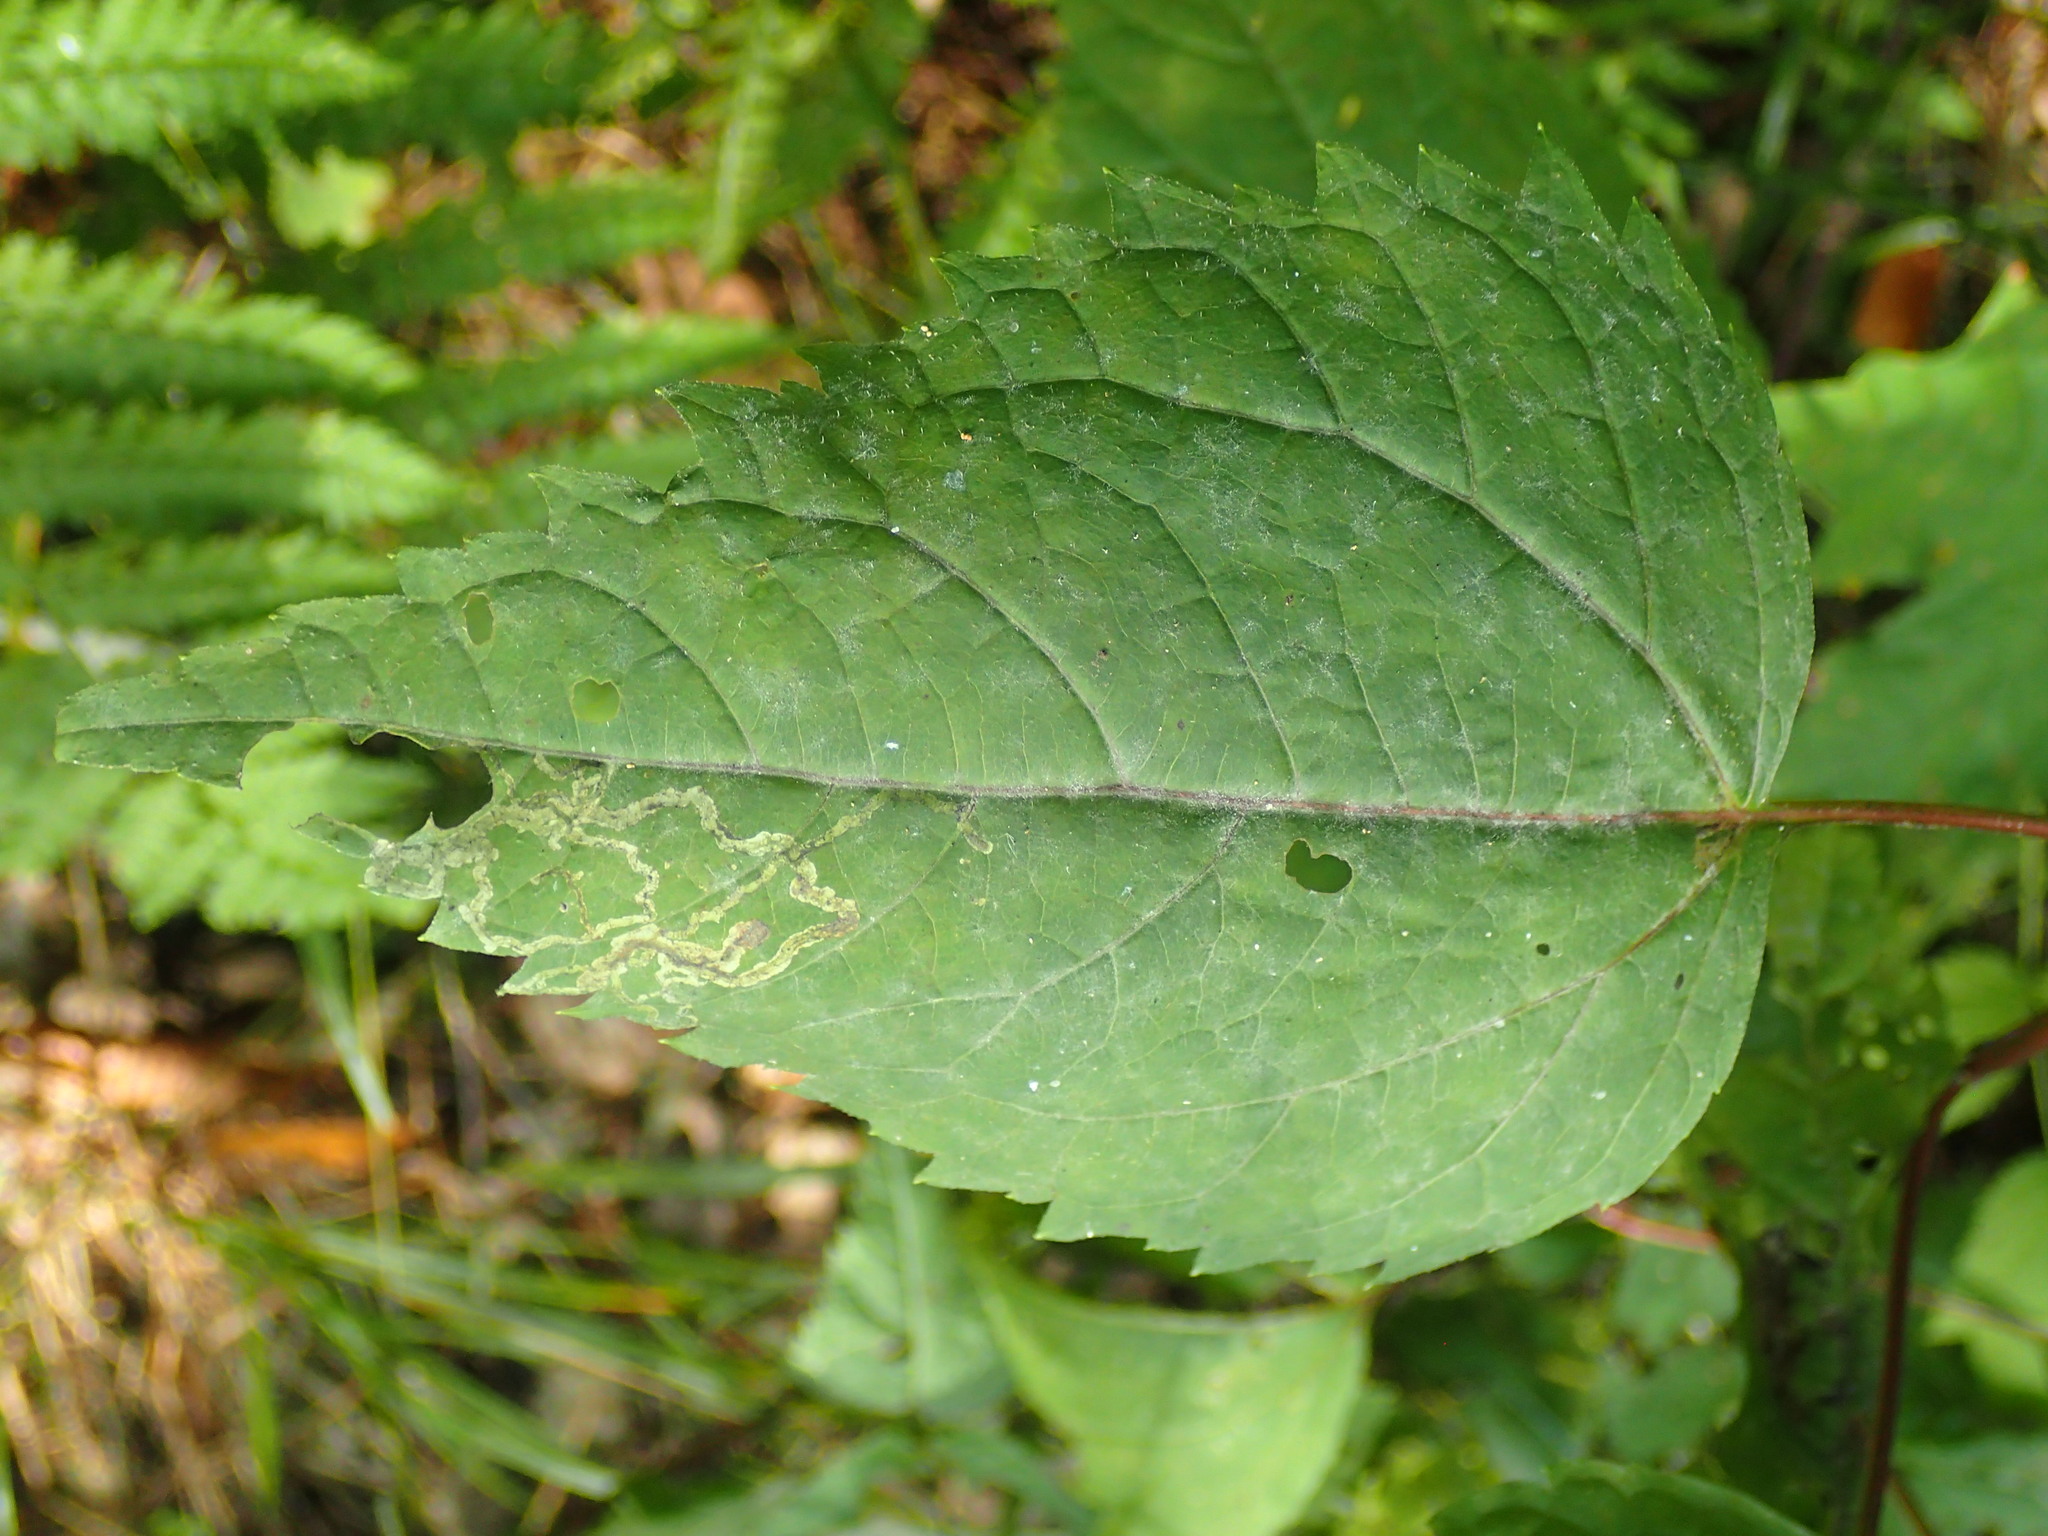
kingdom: Plantae
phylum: Tracheophyta
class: Magnoliopsida
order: Asterales
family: Asteraceae
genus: Ageratina
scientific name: Ageratina altissima
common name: White snakeroot
